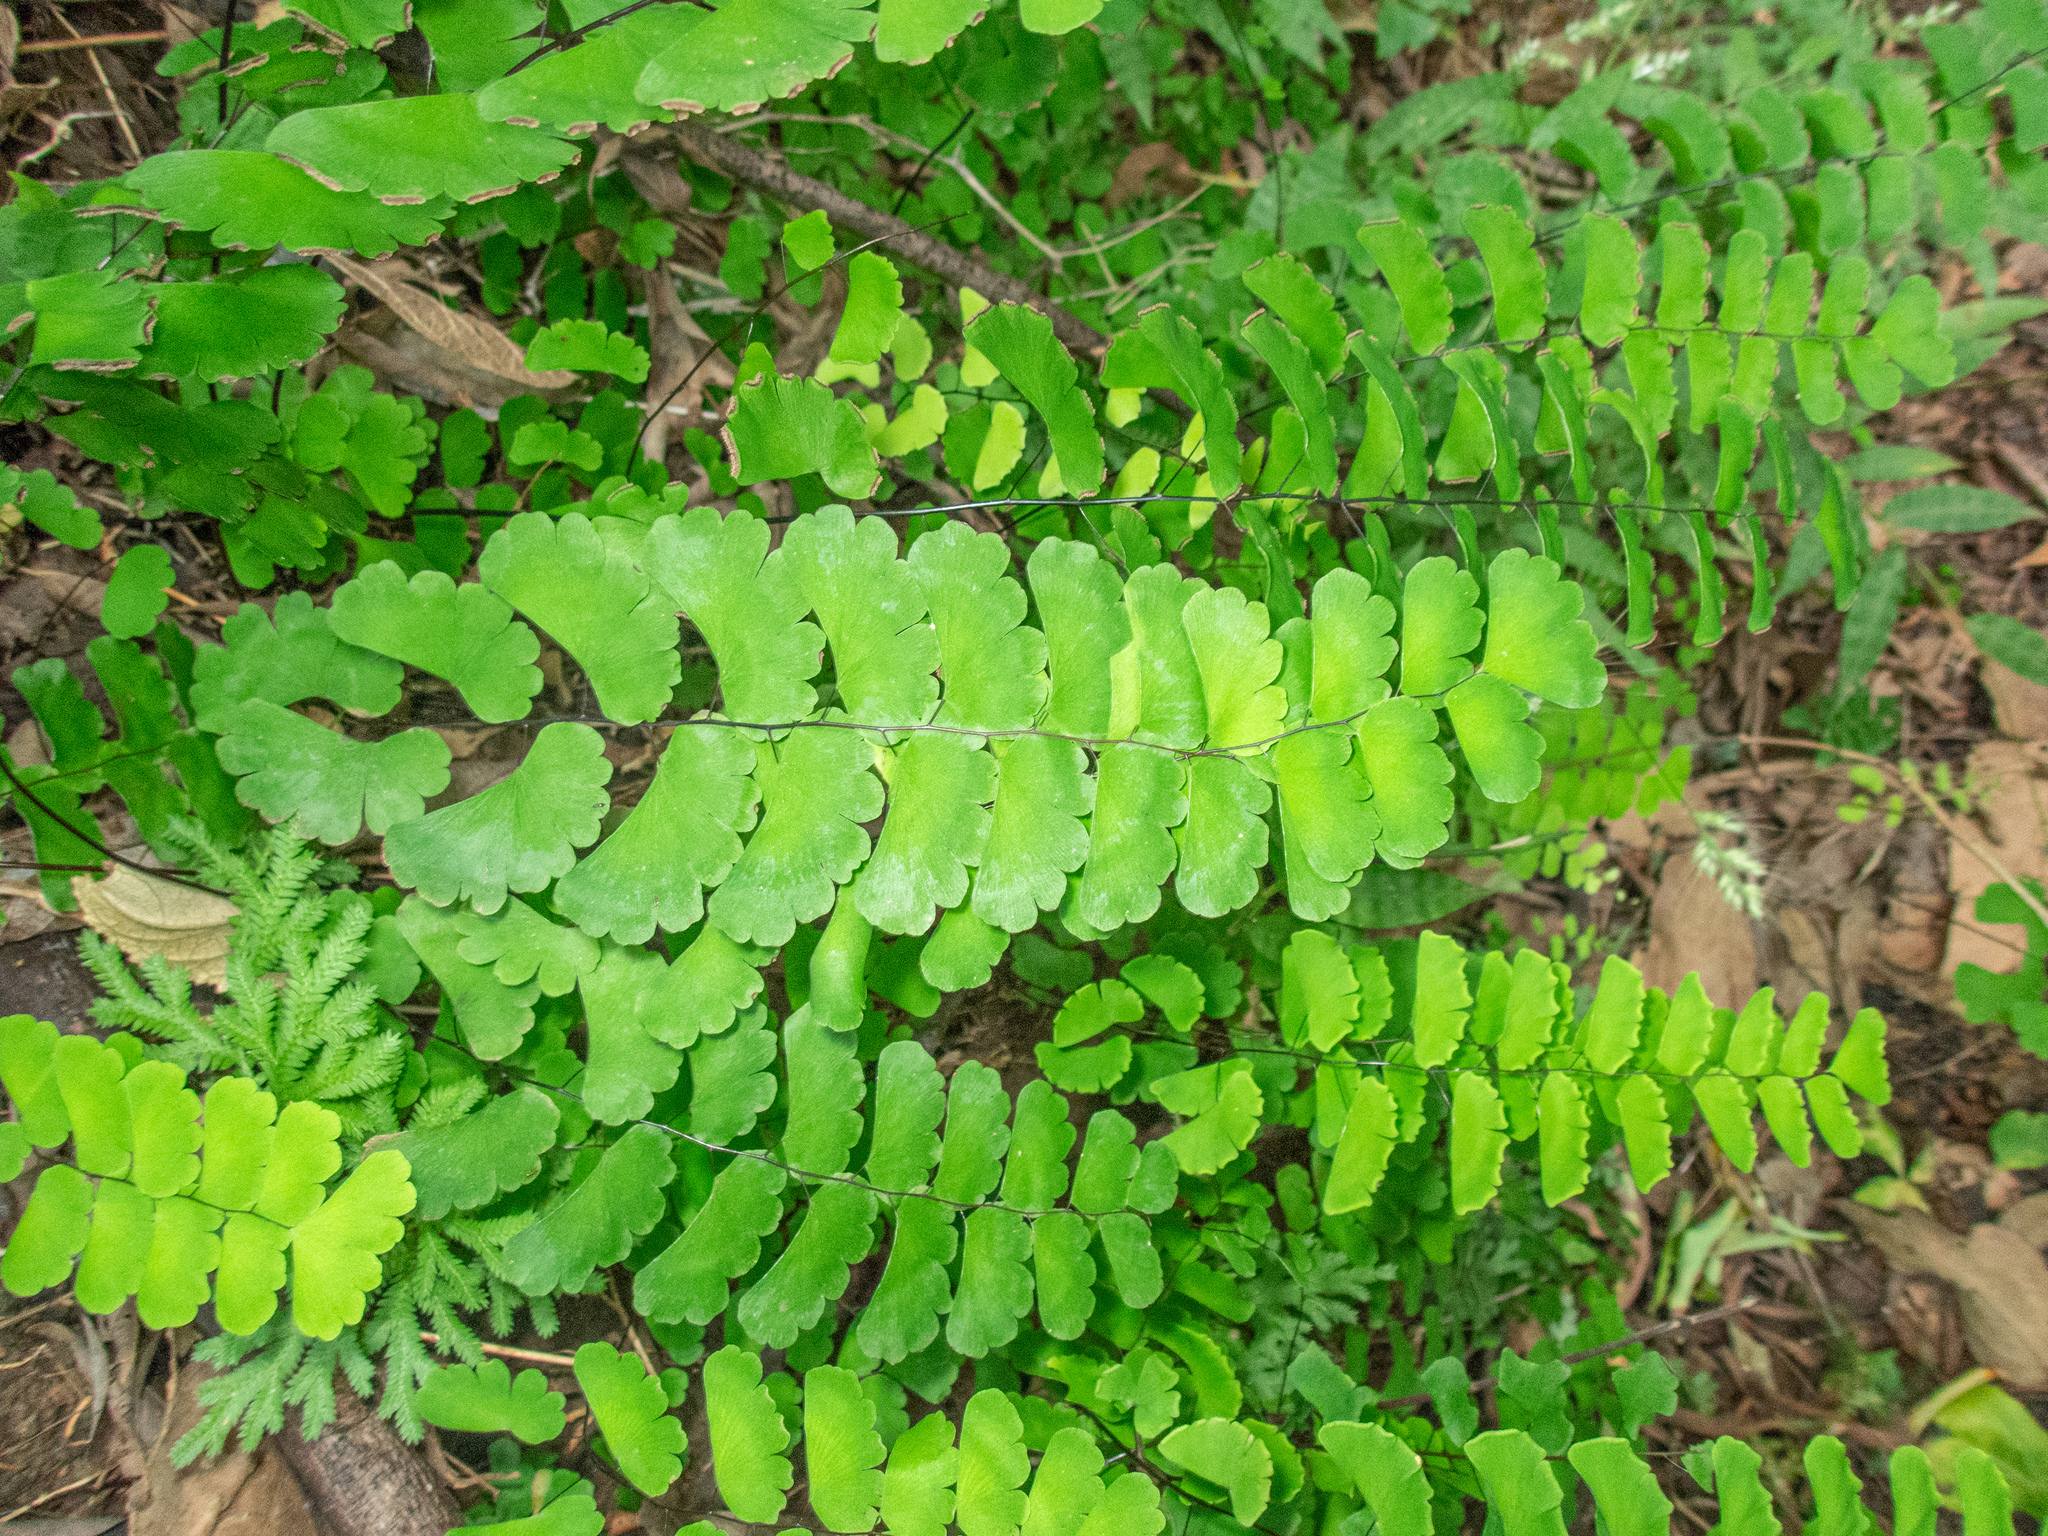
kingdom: Plantae
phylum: Tracheophyta
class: Polypodiopsida
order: Polypodiales
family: Pteridaceae
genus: Adiantum
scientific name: Adiantum philippense
